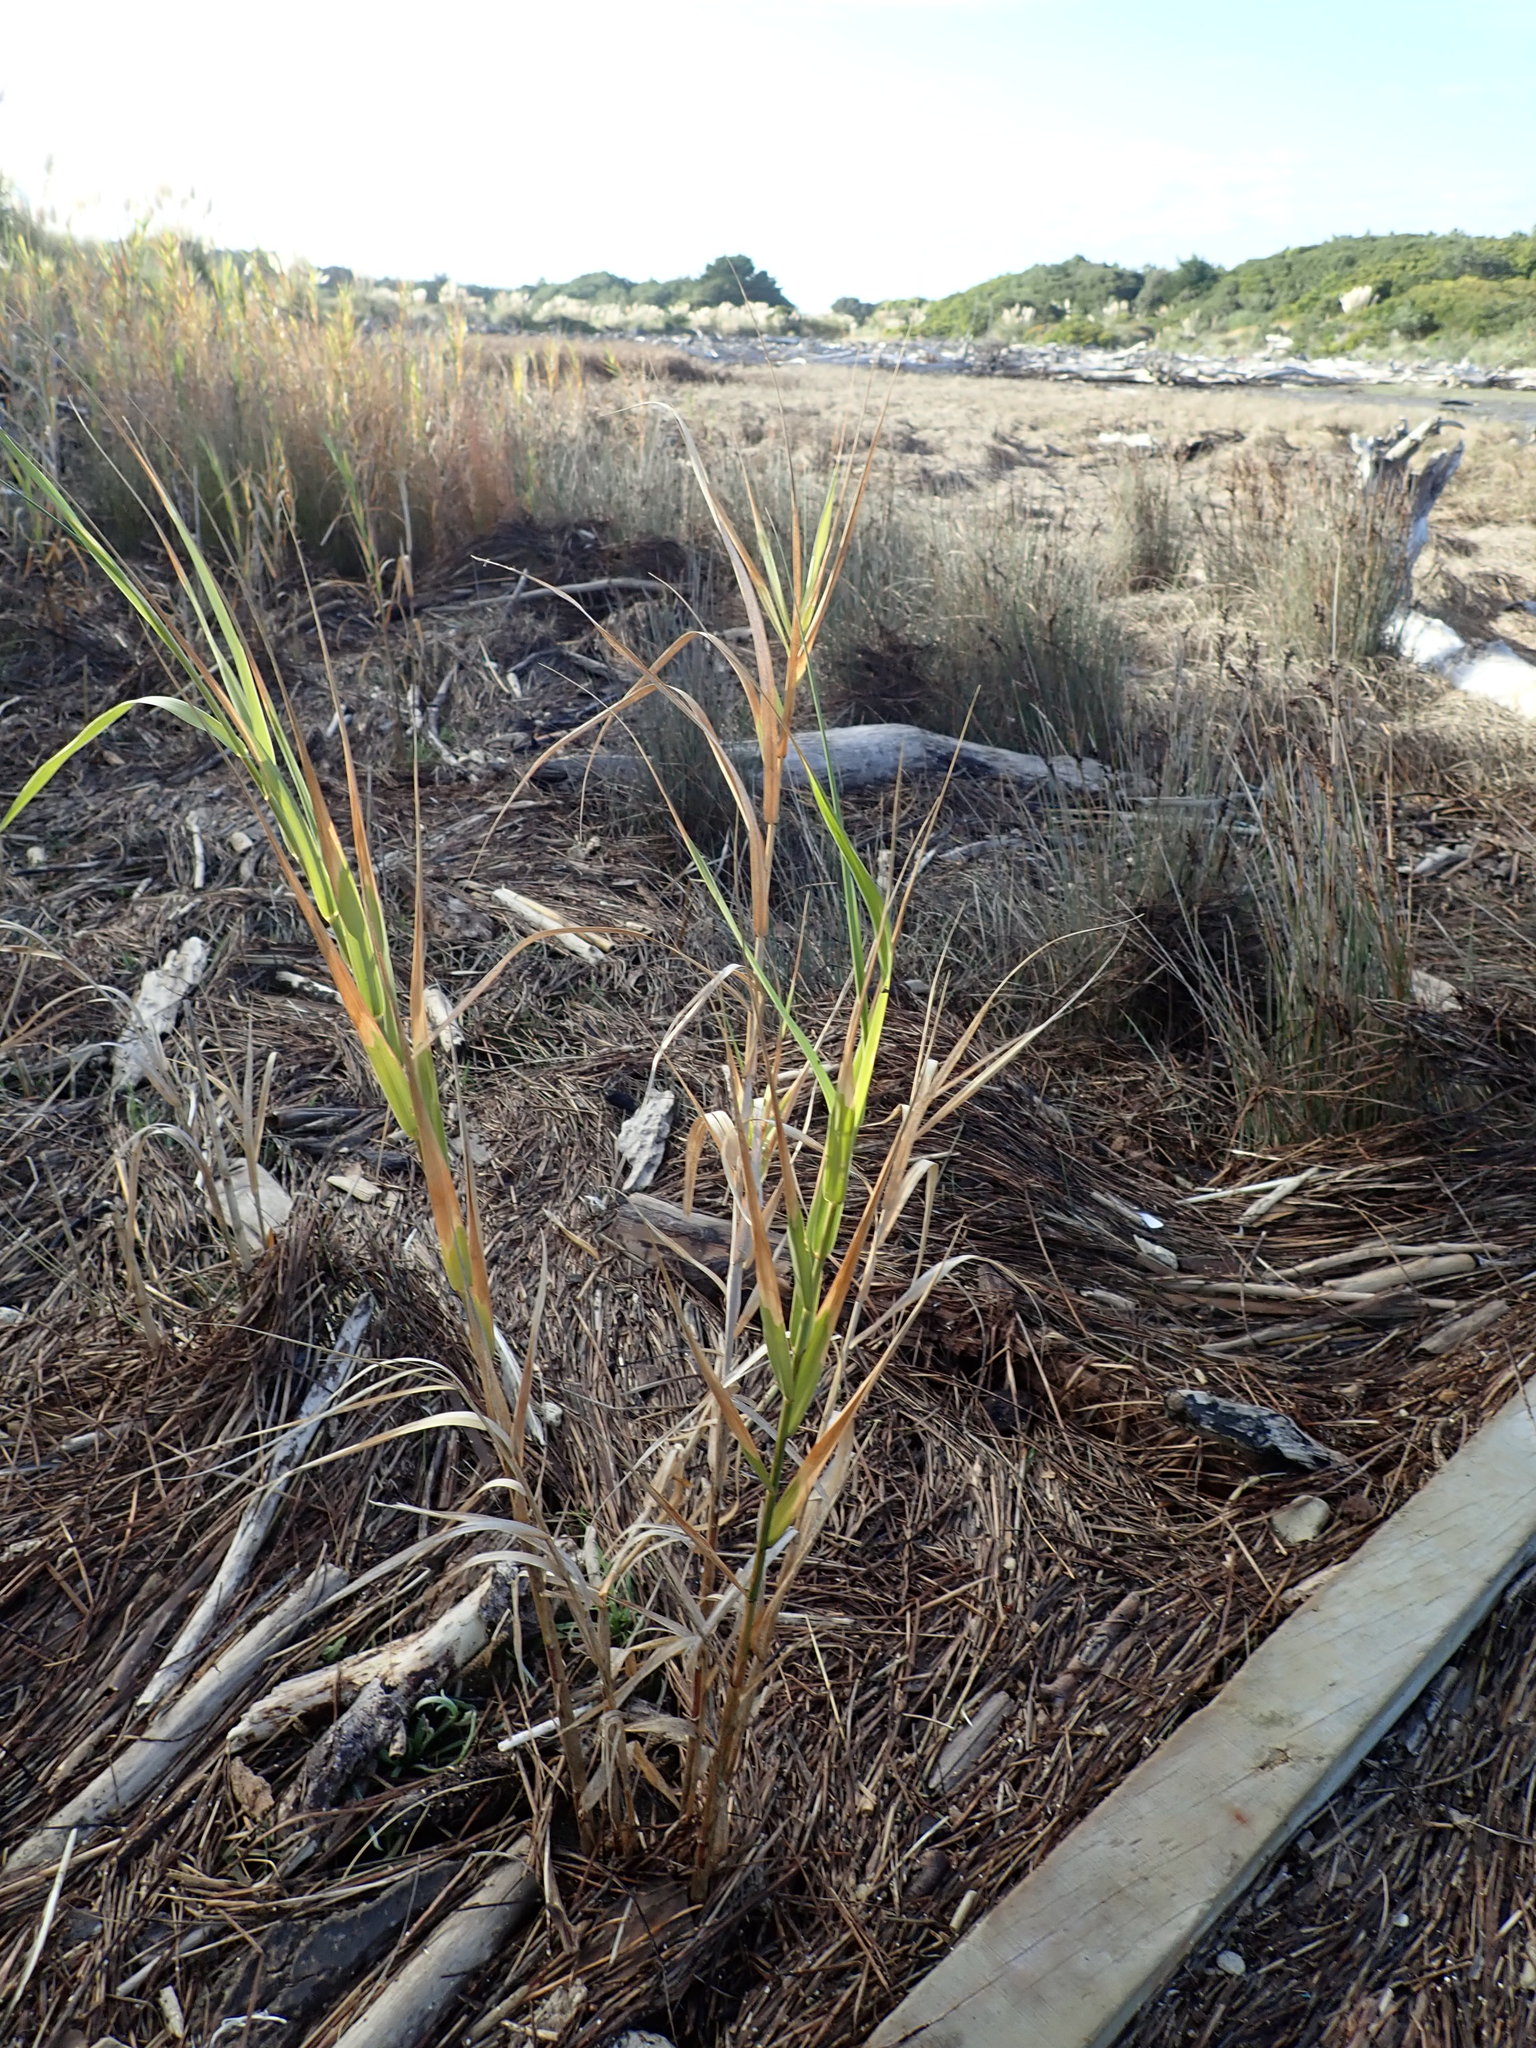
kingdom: Plantae
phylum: Tracheophyta
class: Liliopsida
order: Poales
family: Poaceae
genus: Phragmites
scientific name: Phragmites karka
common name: Tropical reed
